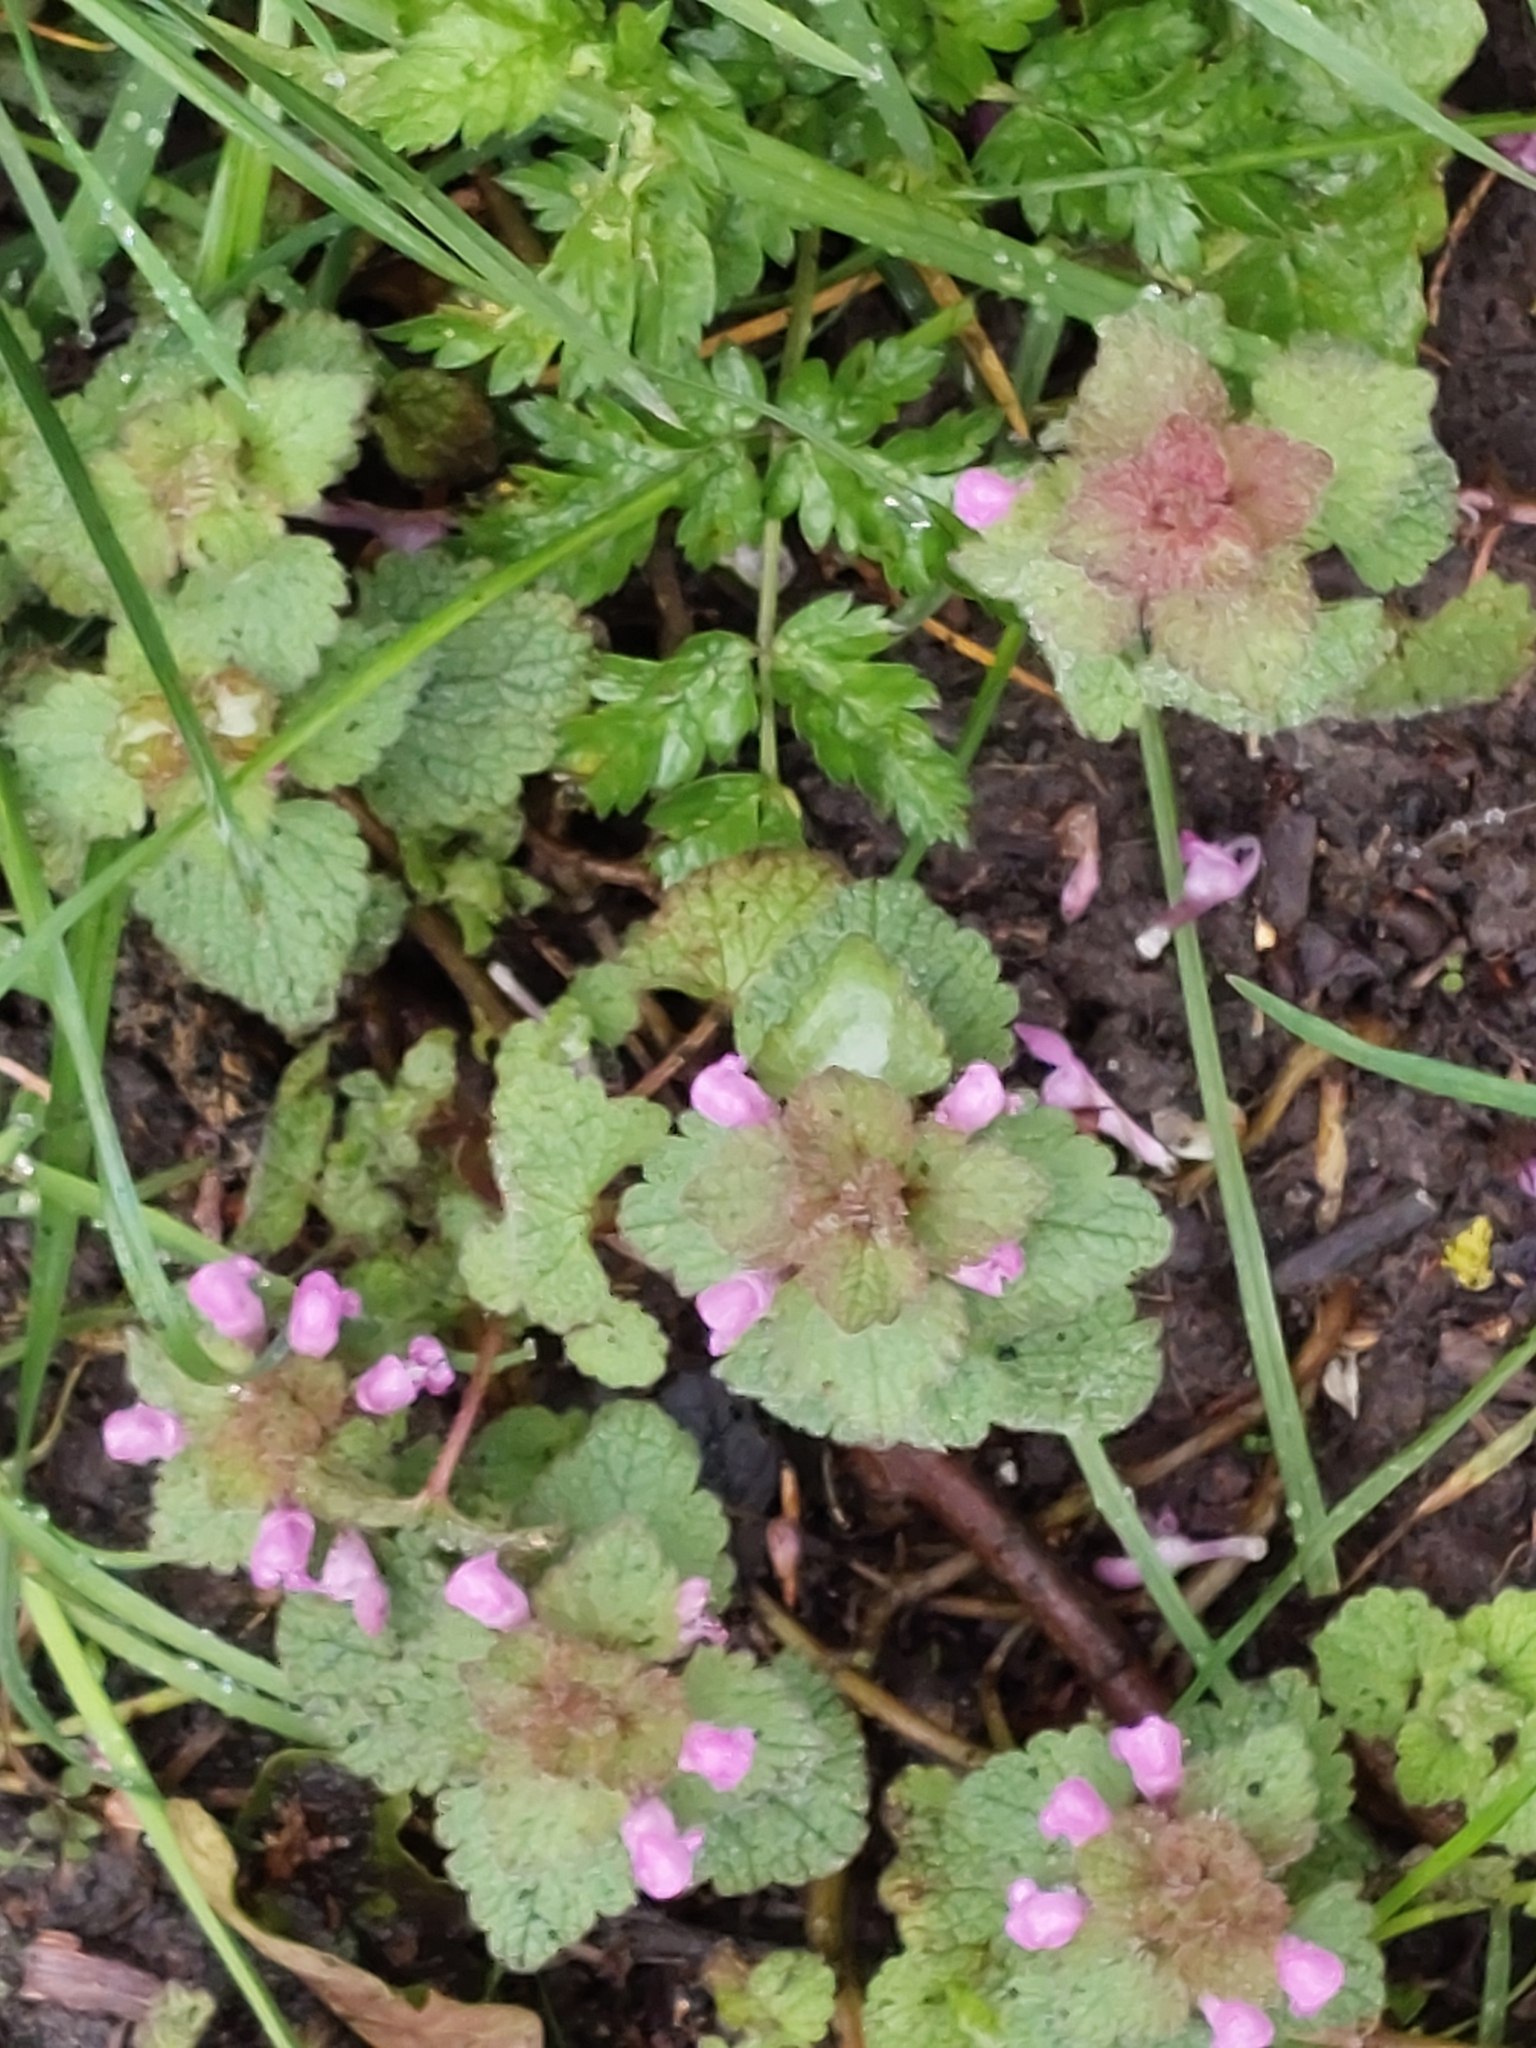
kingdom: Plantae
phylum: Tracheophyta
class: Magnoliopsida
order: Lamiales
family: Lamiaceae
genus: Lamium
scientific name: Lamium purpureum
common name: Red dead-nettle
